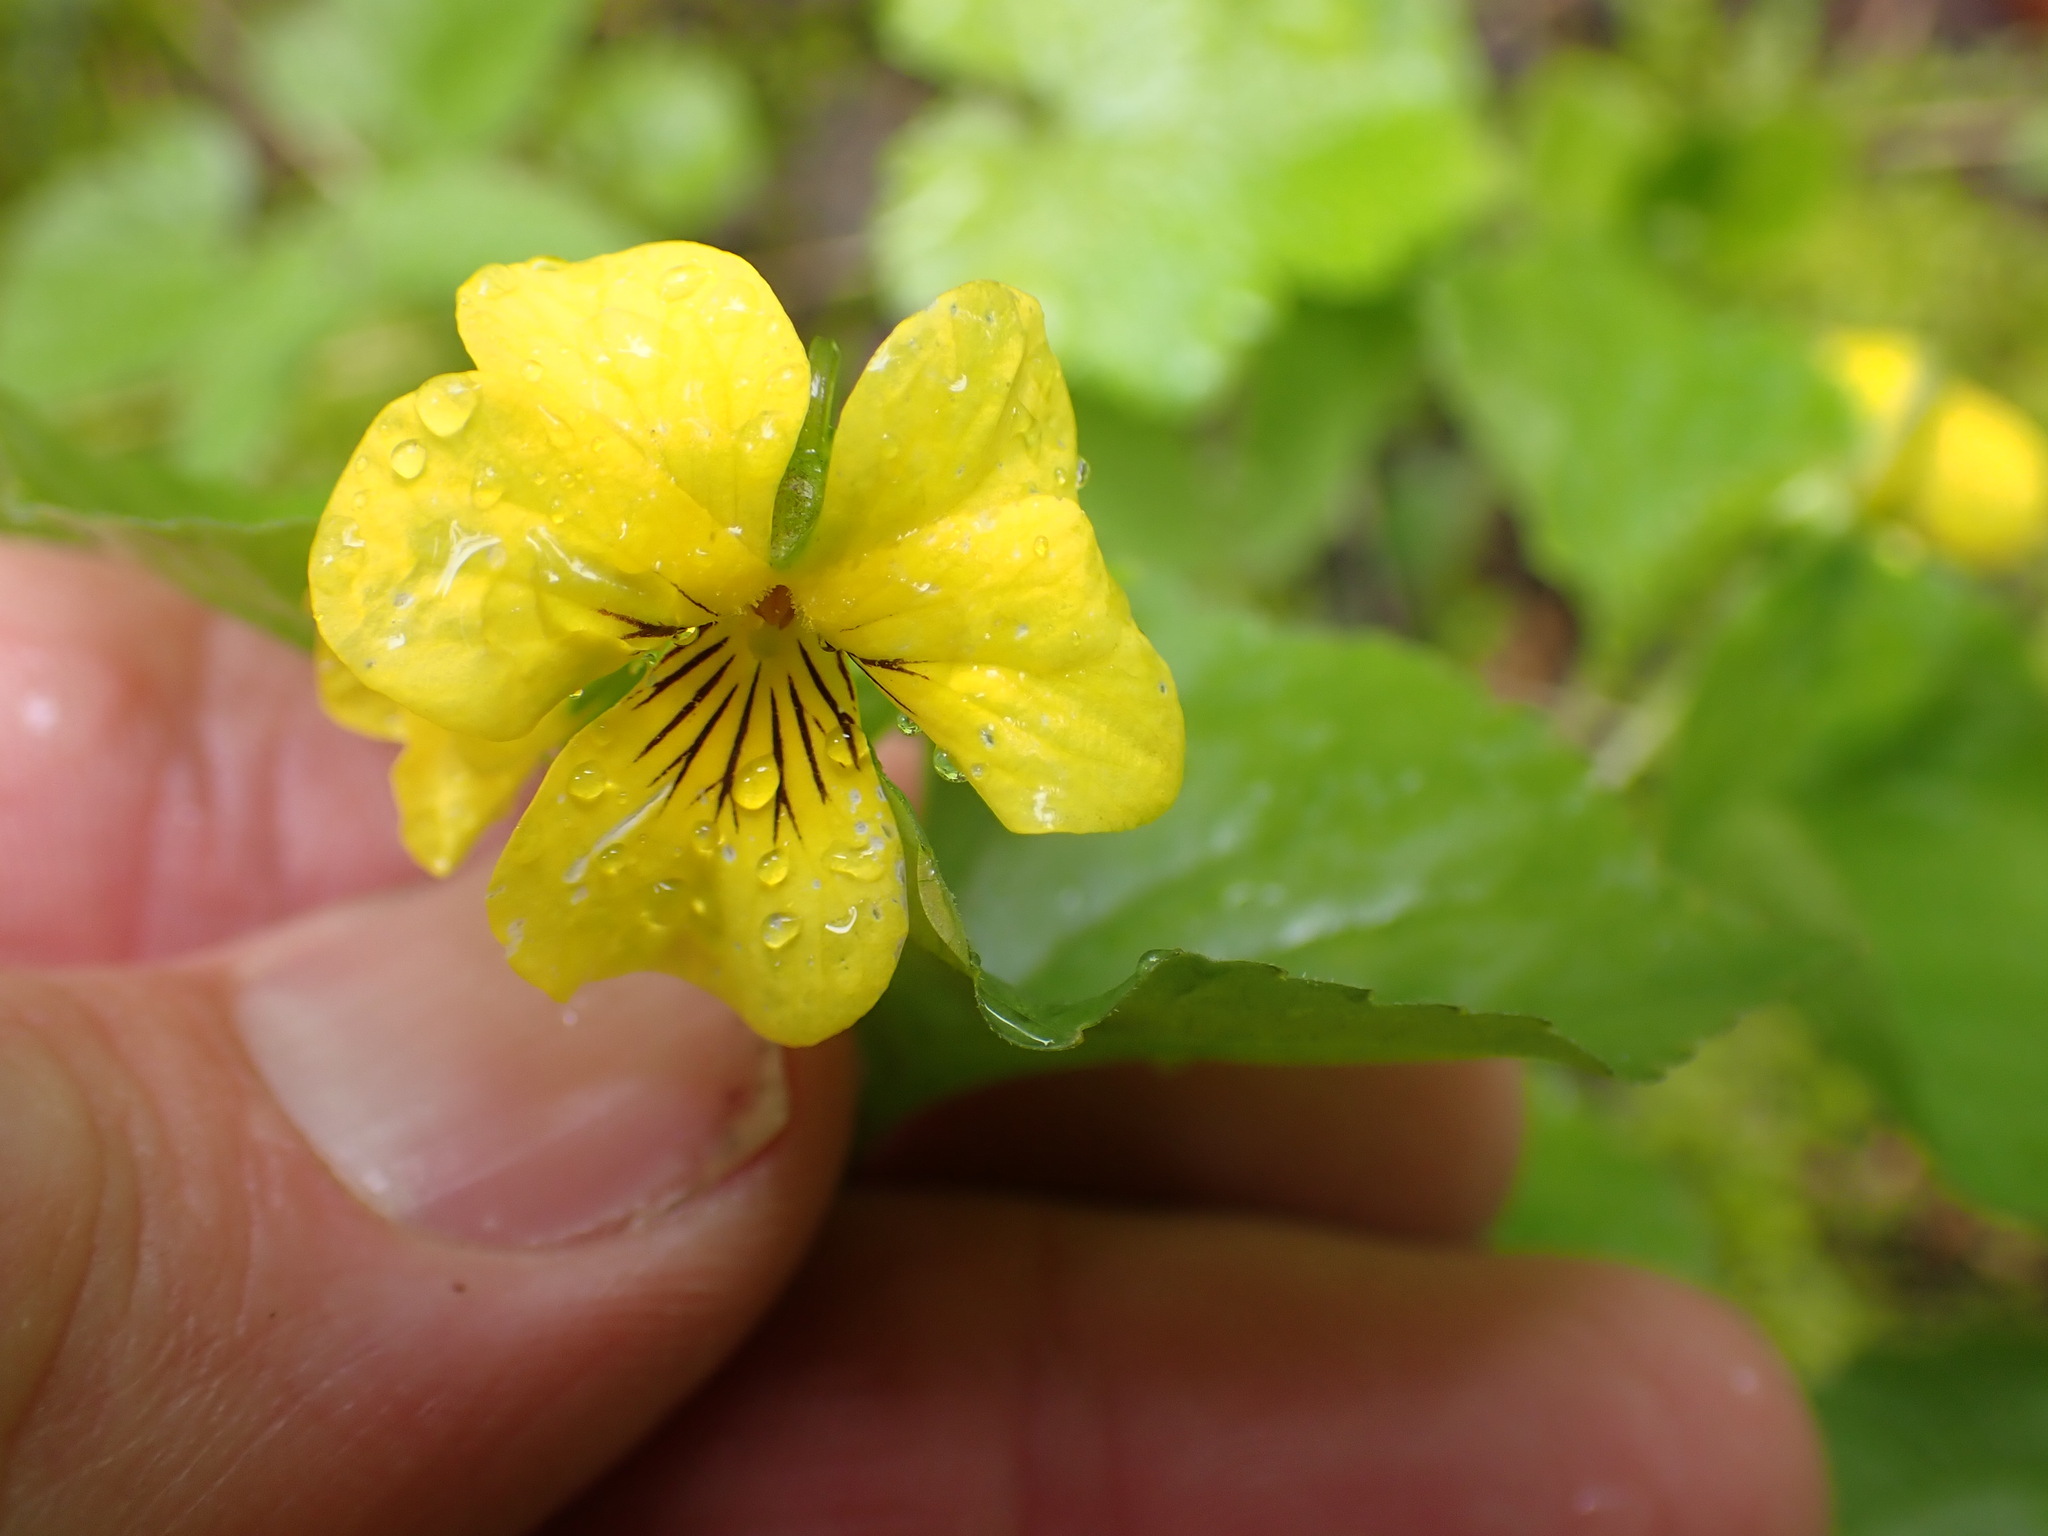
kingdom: Plantae
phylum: Tracheophyta
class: Magnoliopsida
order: Malpighiales
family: Violaceae
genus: Viola
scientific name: Viola glabella
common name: Stream violet
